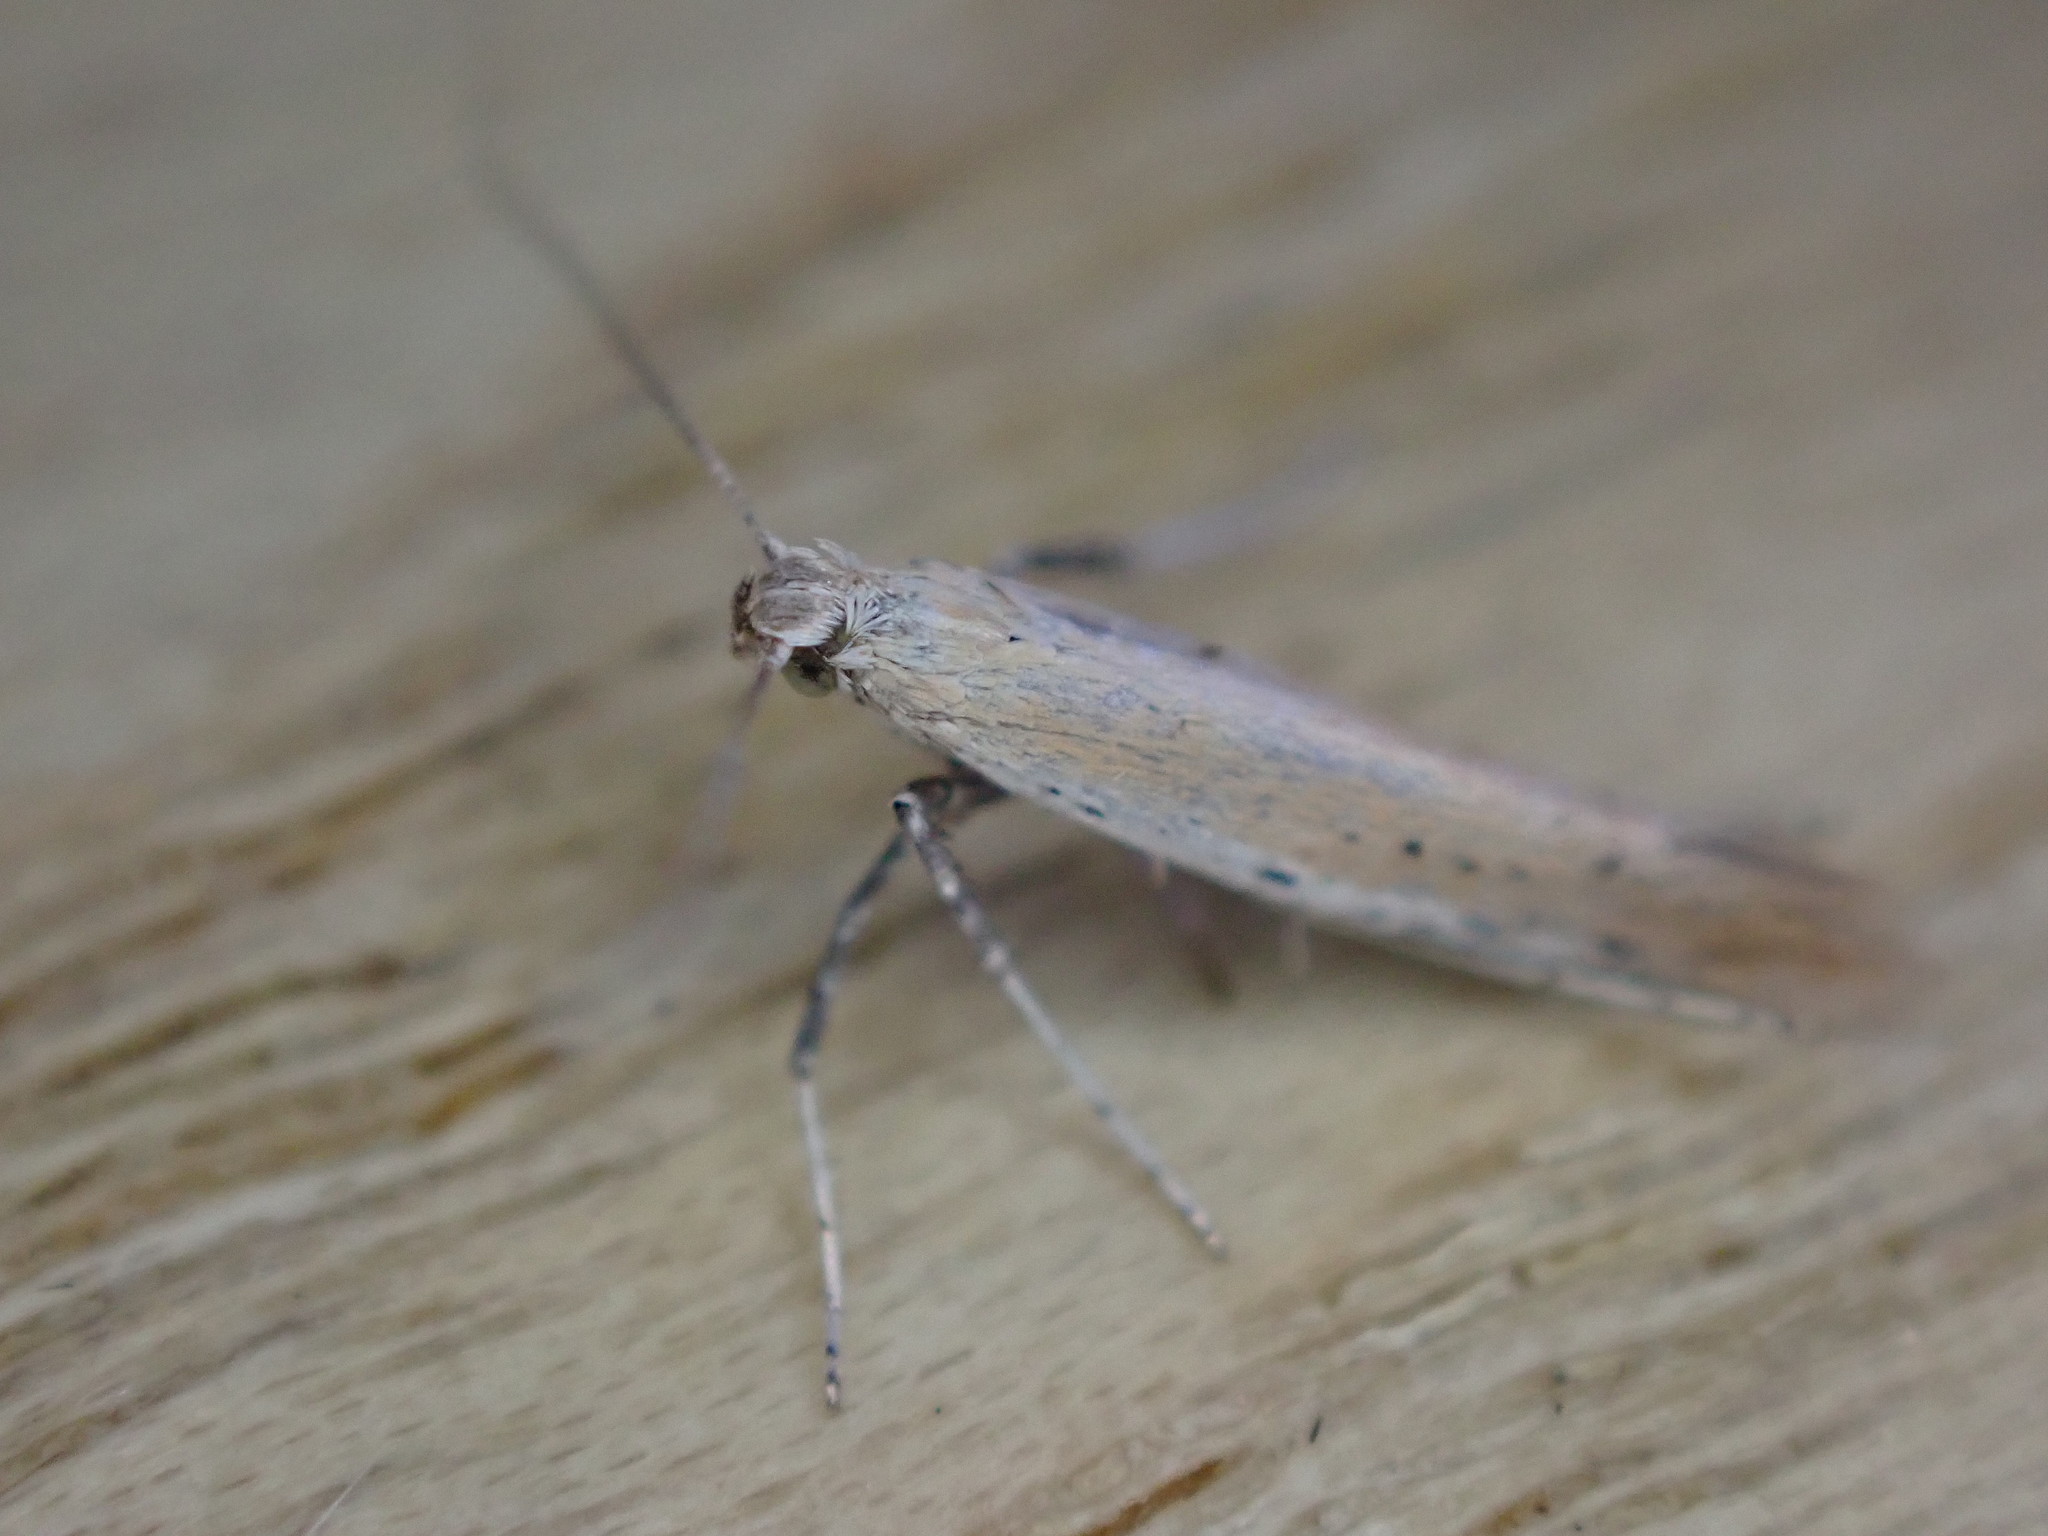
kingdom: Animalia
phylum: Arthropoda
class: Insecta
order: Lepidoptera
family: Gracillariidae
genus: Aspilapteryx
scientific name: Aspilapteryx tringipennella
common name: Ribwort slender
